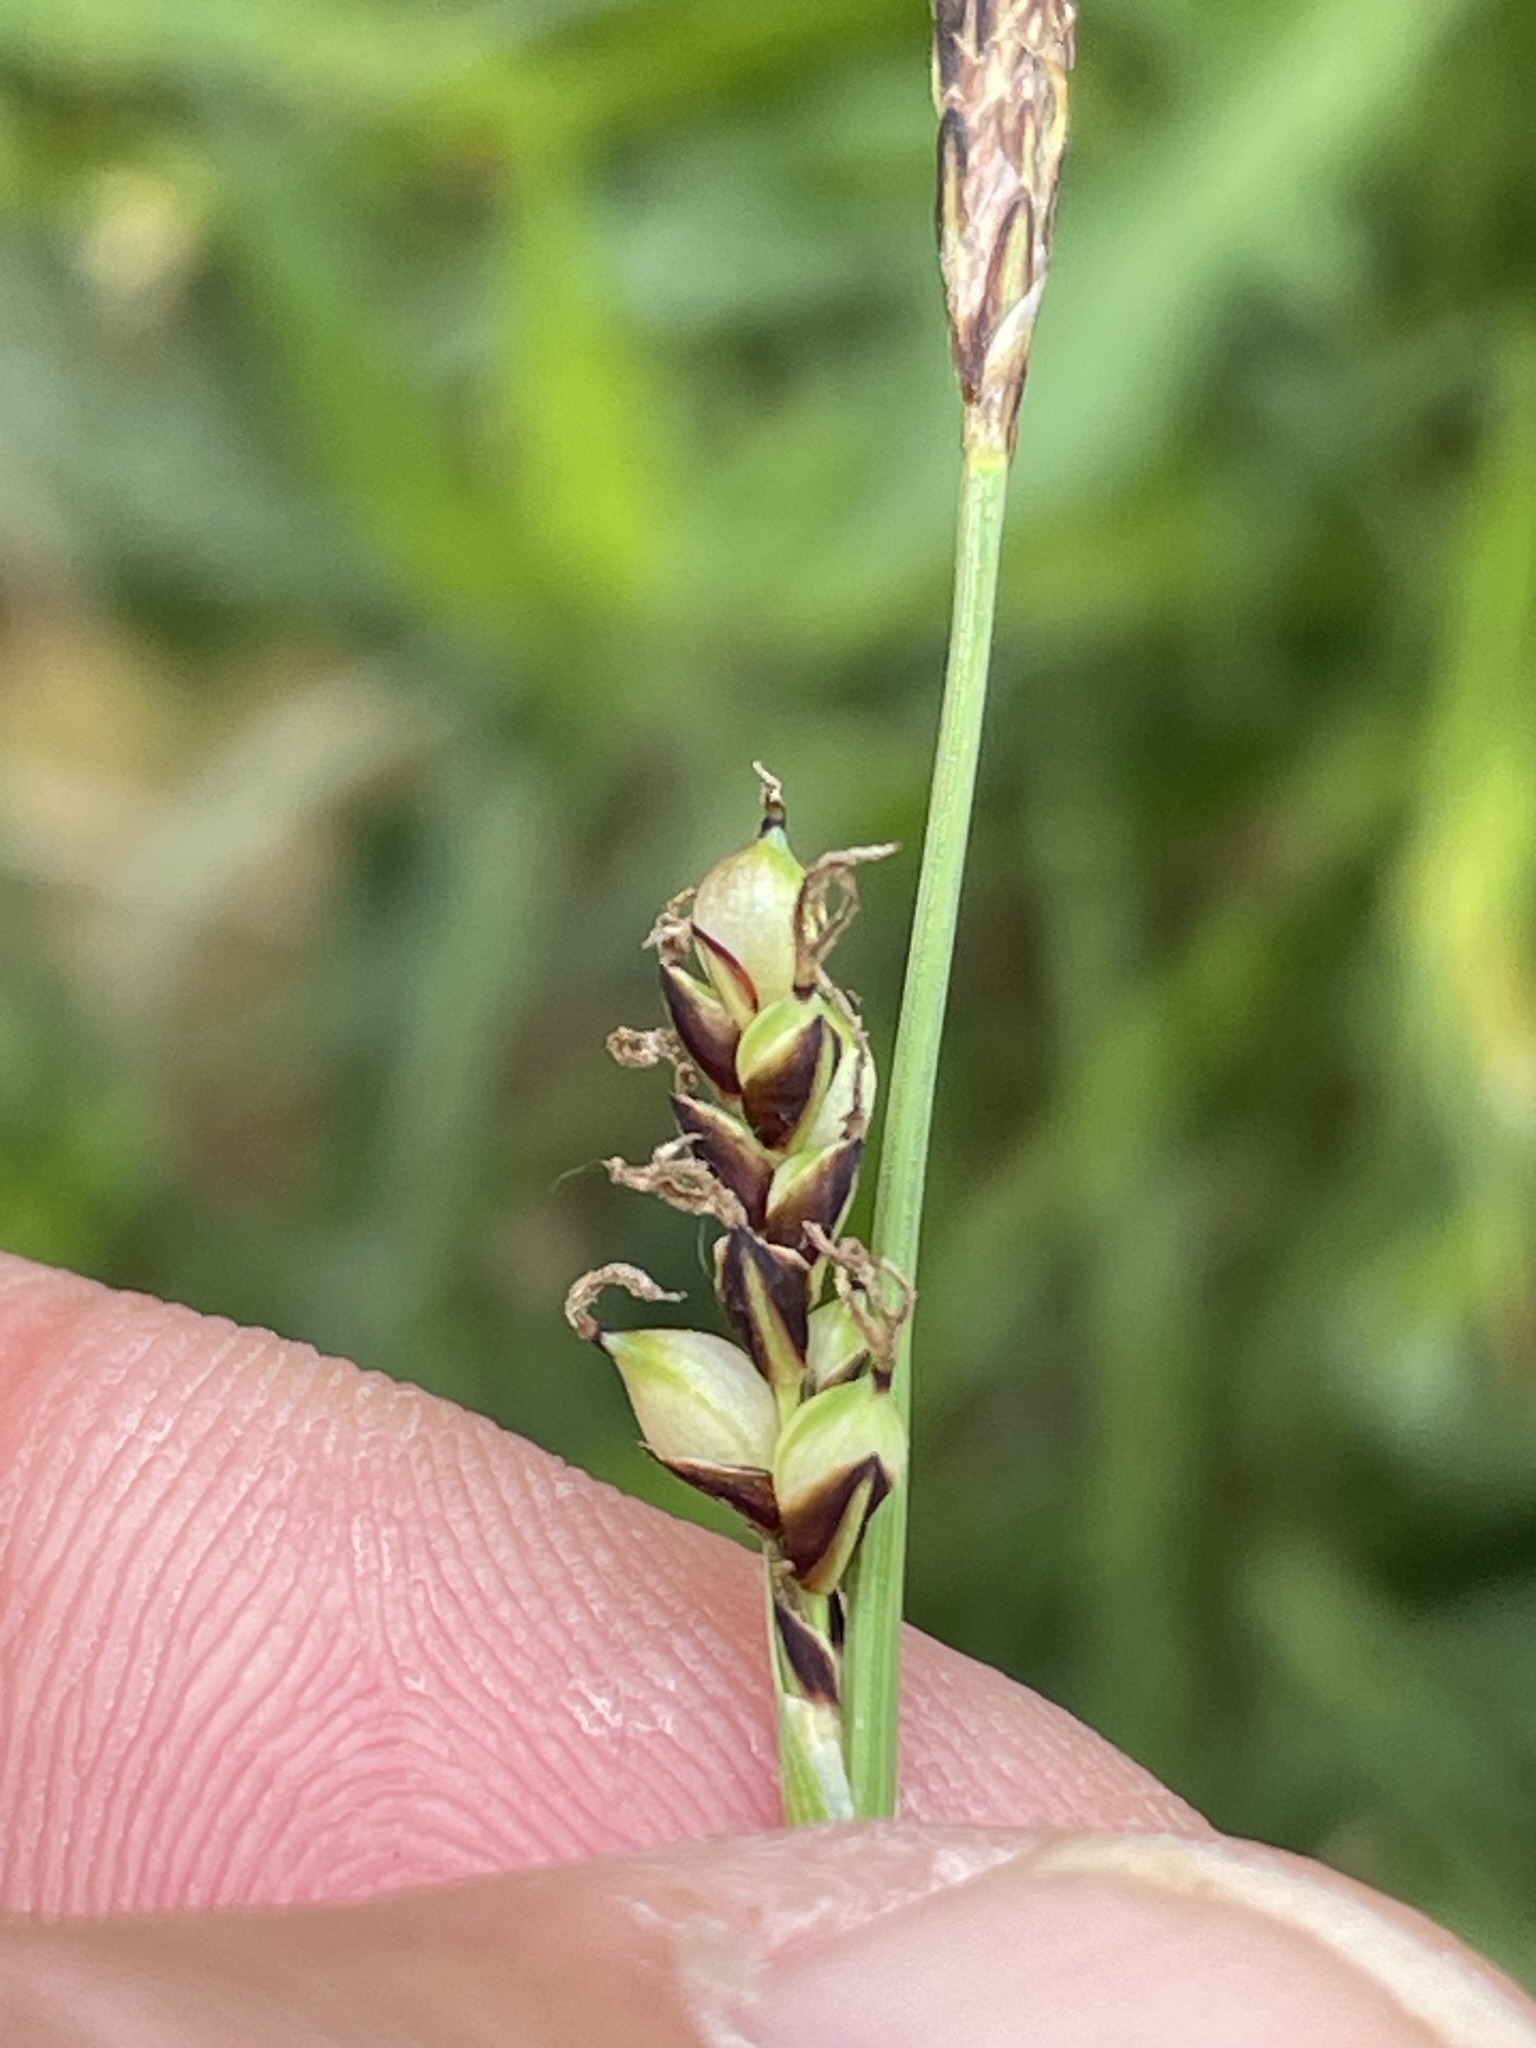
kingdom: Plantae
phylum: Tracheophyta
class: Liliopsida
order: Poales
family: Cyperaceae
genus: Carex
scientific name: Carex panicea
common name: Carnation sedge
